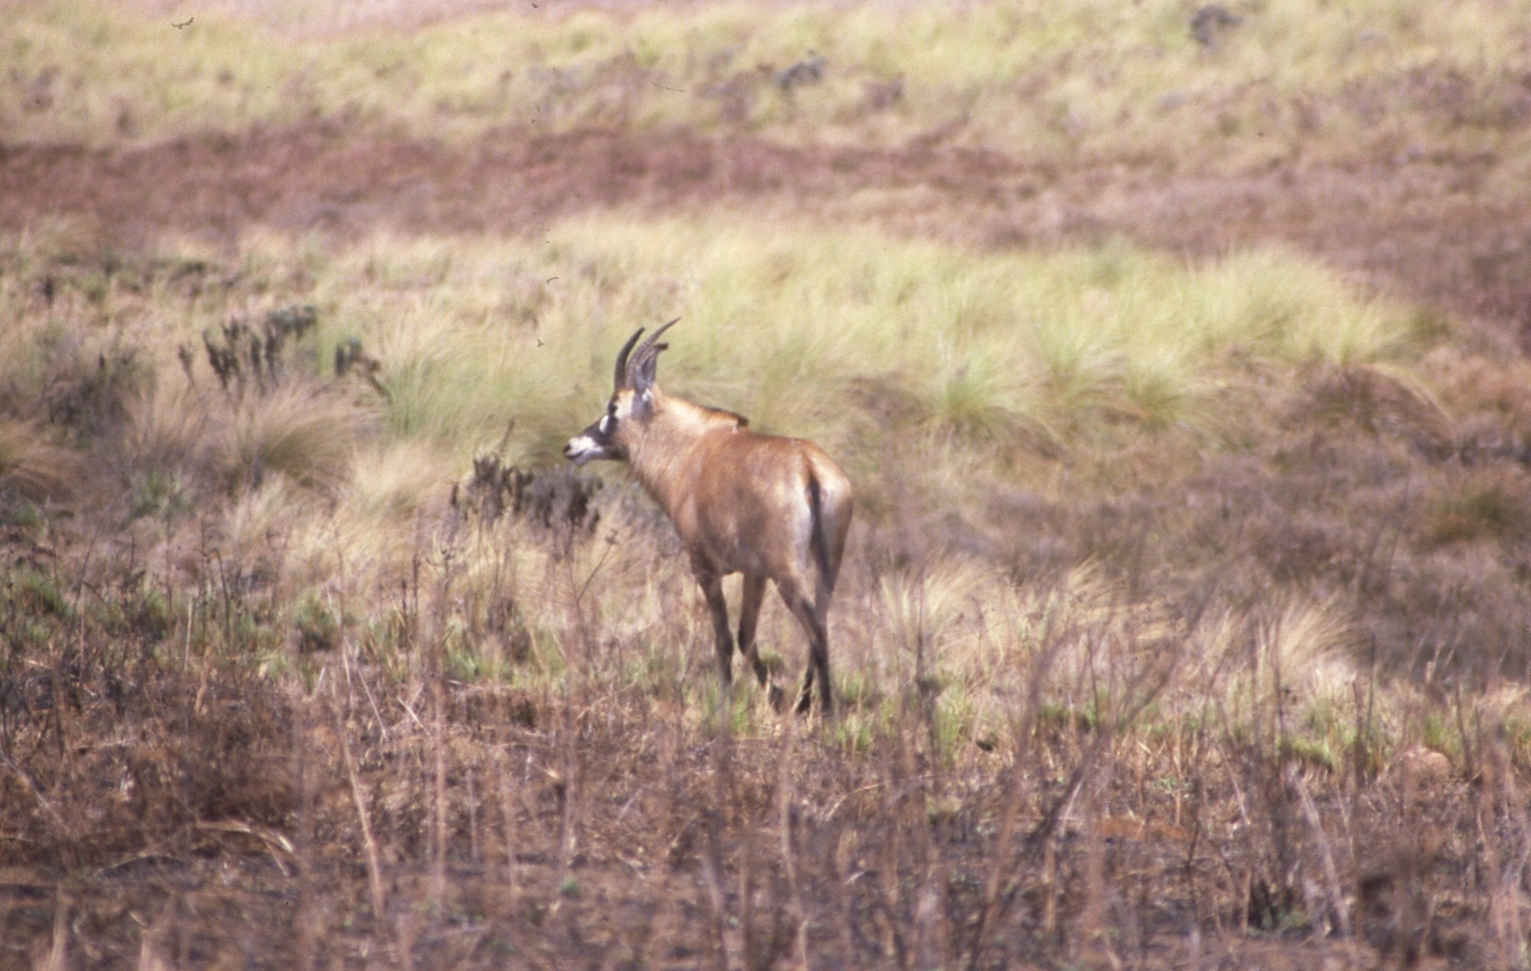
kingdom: Animalia
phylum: Chordata
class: Mammalia
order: Artiodactyla
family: Bovidae
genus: Hippotragus
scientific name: Hippotragus equinus
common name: Roan antelope
